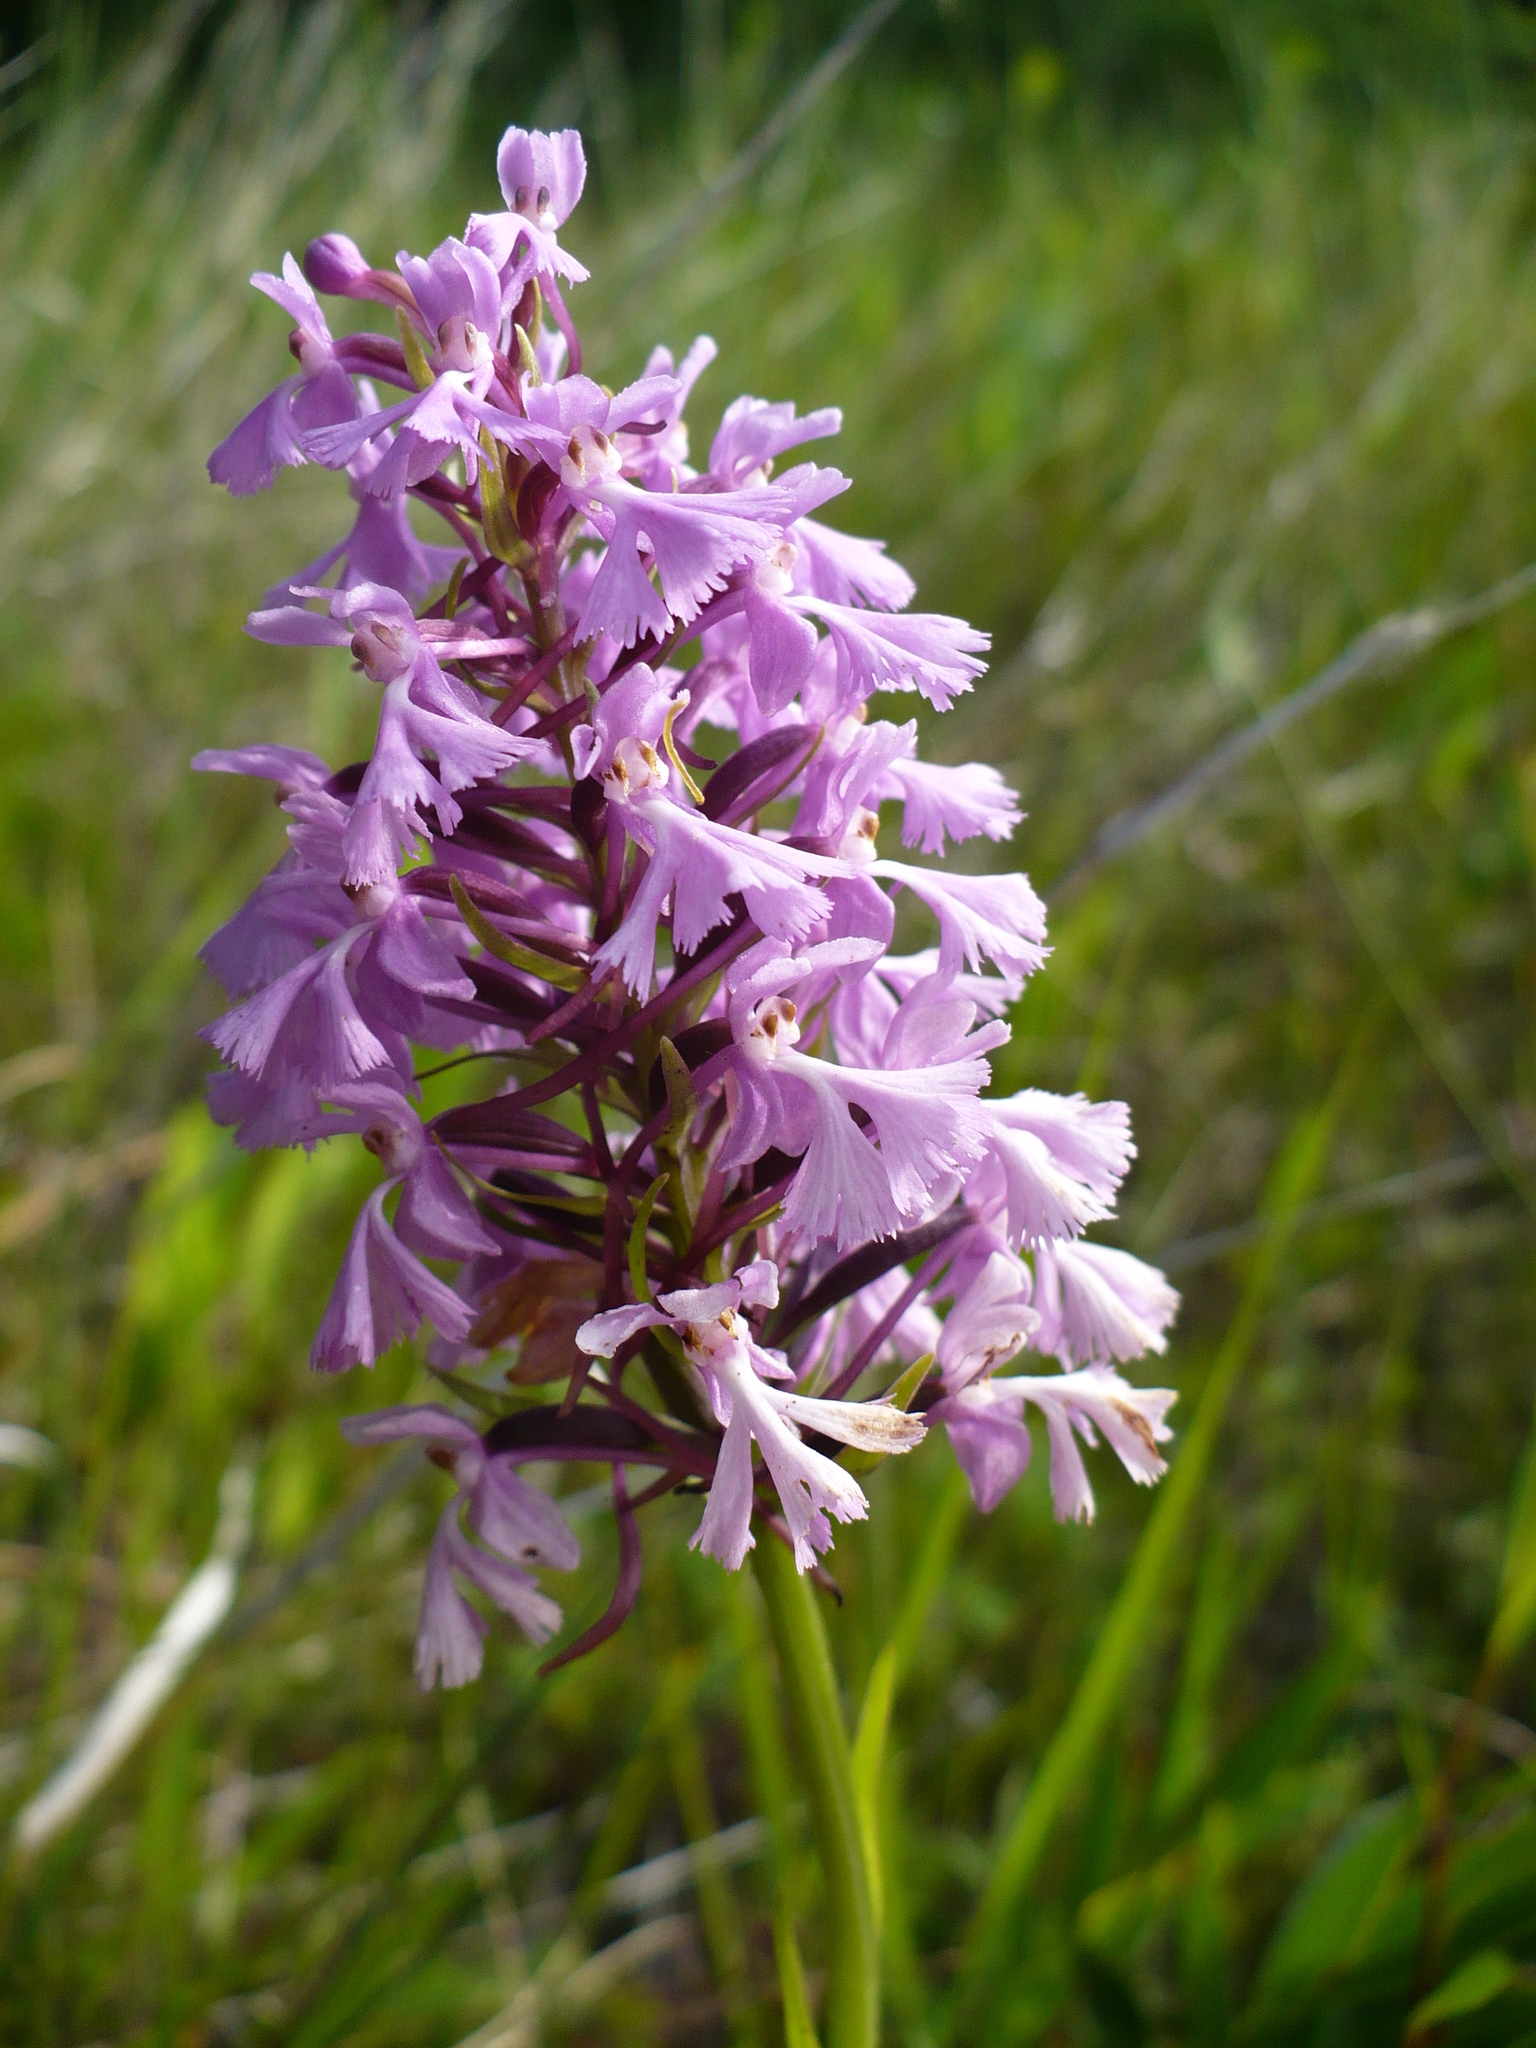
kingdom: Plantae
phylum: Tracheophyta
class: Liliopsida
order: Asparagales
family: Orchidaceae
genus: Platanthera
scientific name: Platanthera psycodes
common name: Lesser purple fringed orchid
